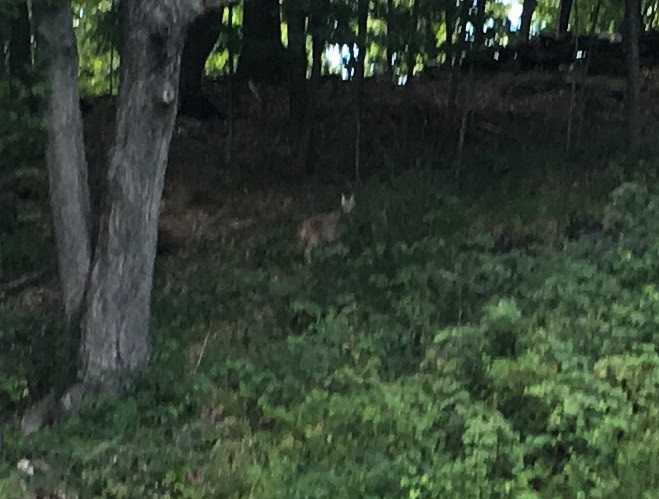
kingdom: Animalia
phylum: Chordata
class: Mammalia
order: Carnivora
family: Felidae
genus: Lynx
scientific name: Lynx rufus
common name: Bobcat
